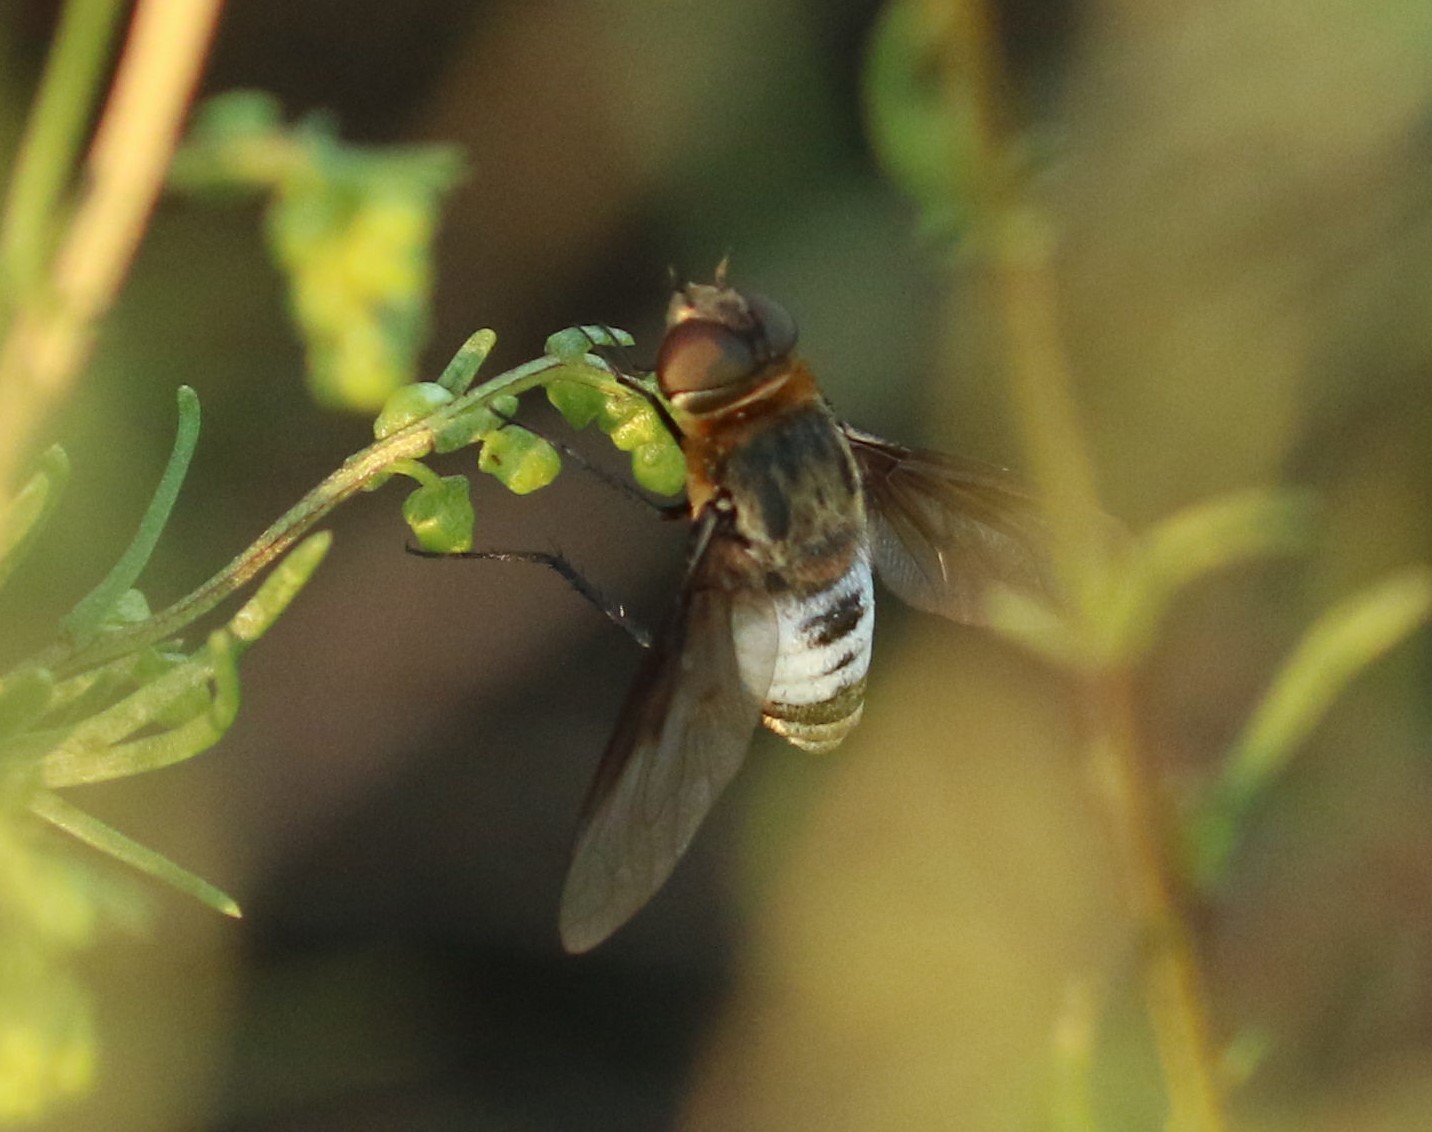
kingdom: Animalia
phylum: Arthropoda
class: Insecta
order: Diptera
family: Bombyliidae
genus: Defilippia
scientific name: Defilippia minos
